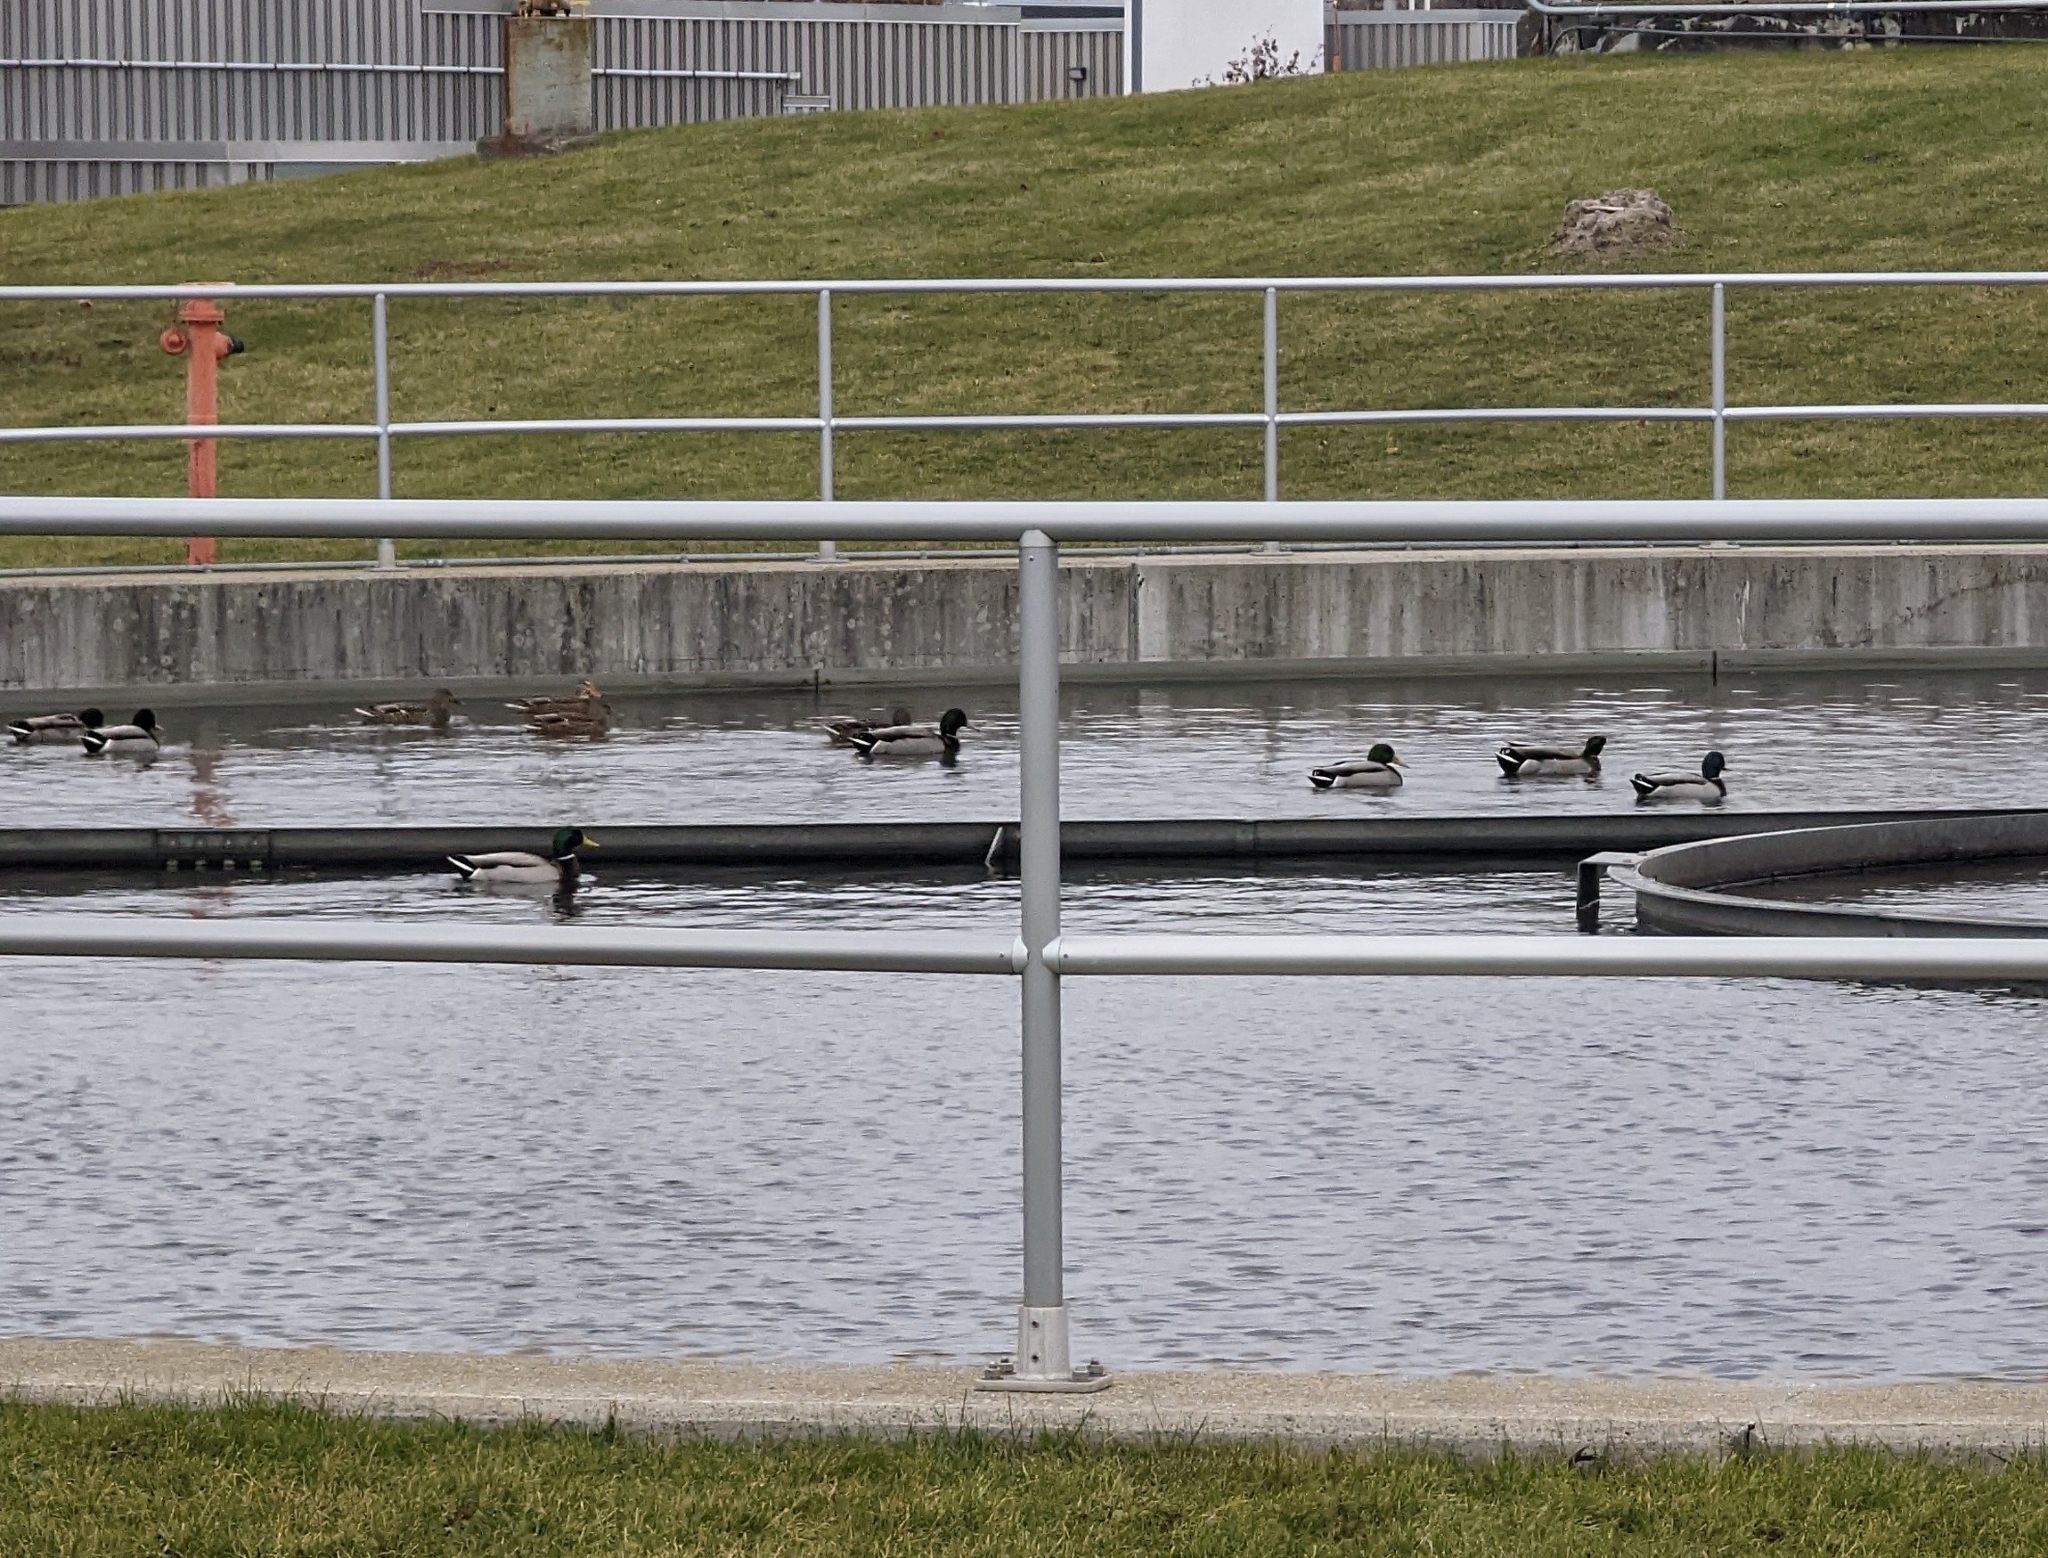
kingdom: Animalia
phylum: Chordata
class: Aves
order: Anseriformes
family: Anatidae
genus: Anas
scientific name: Anas platyrhynchos
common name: Mallard
